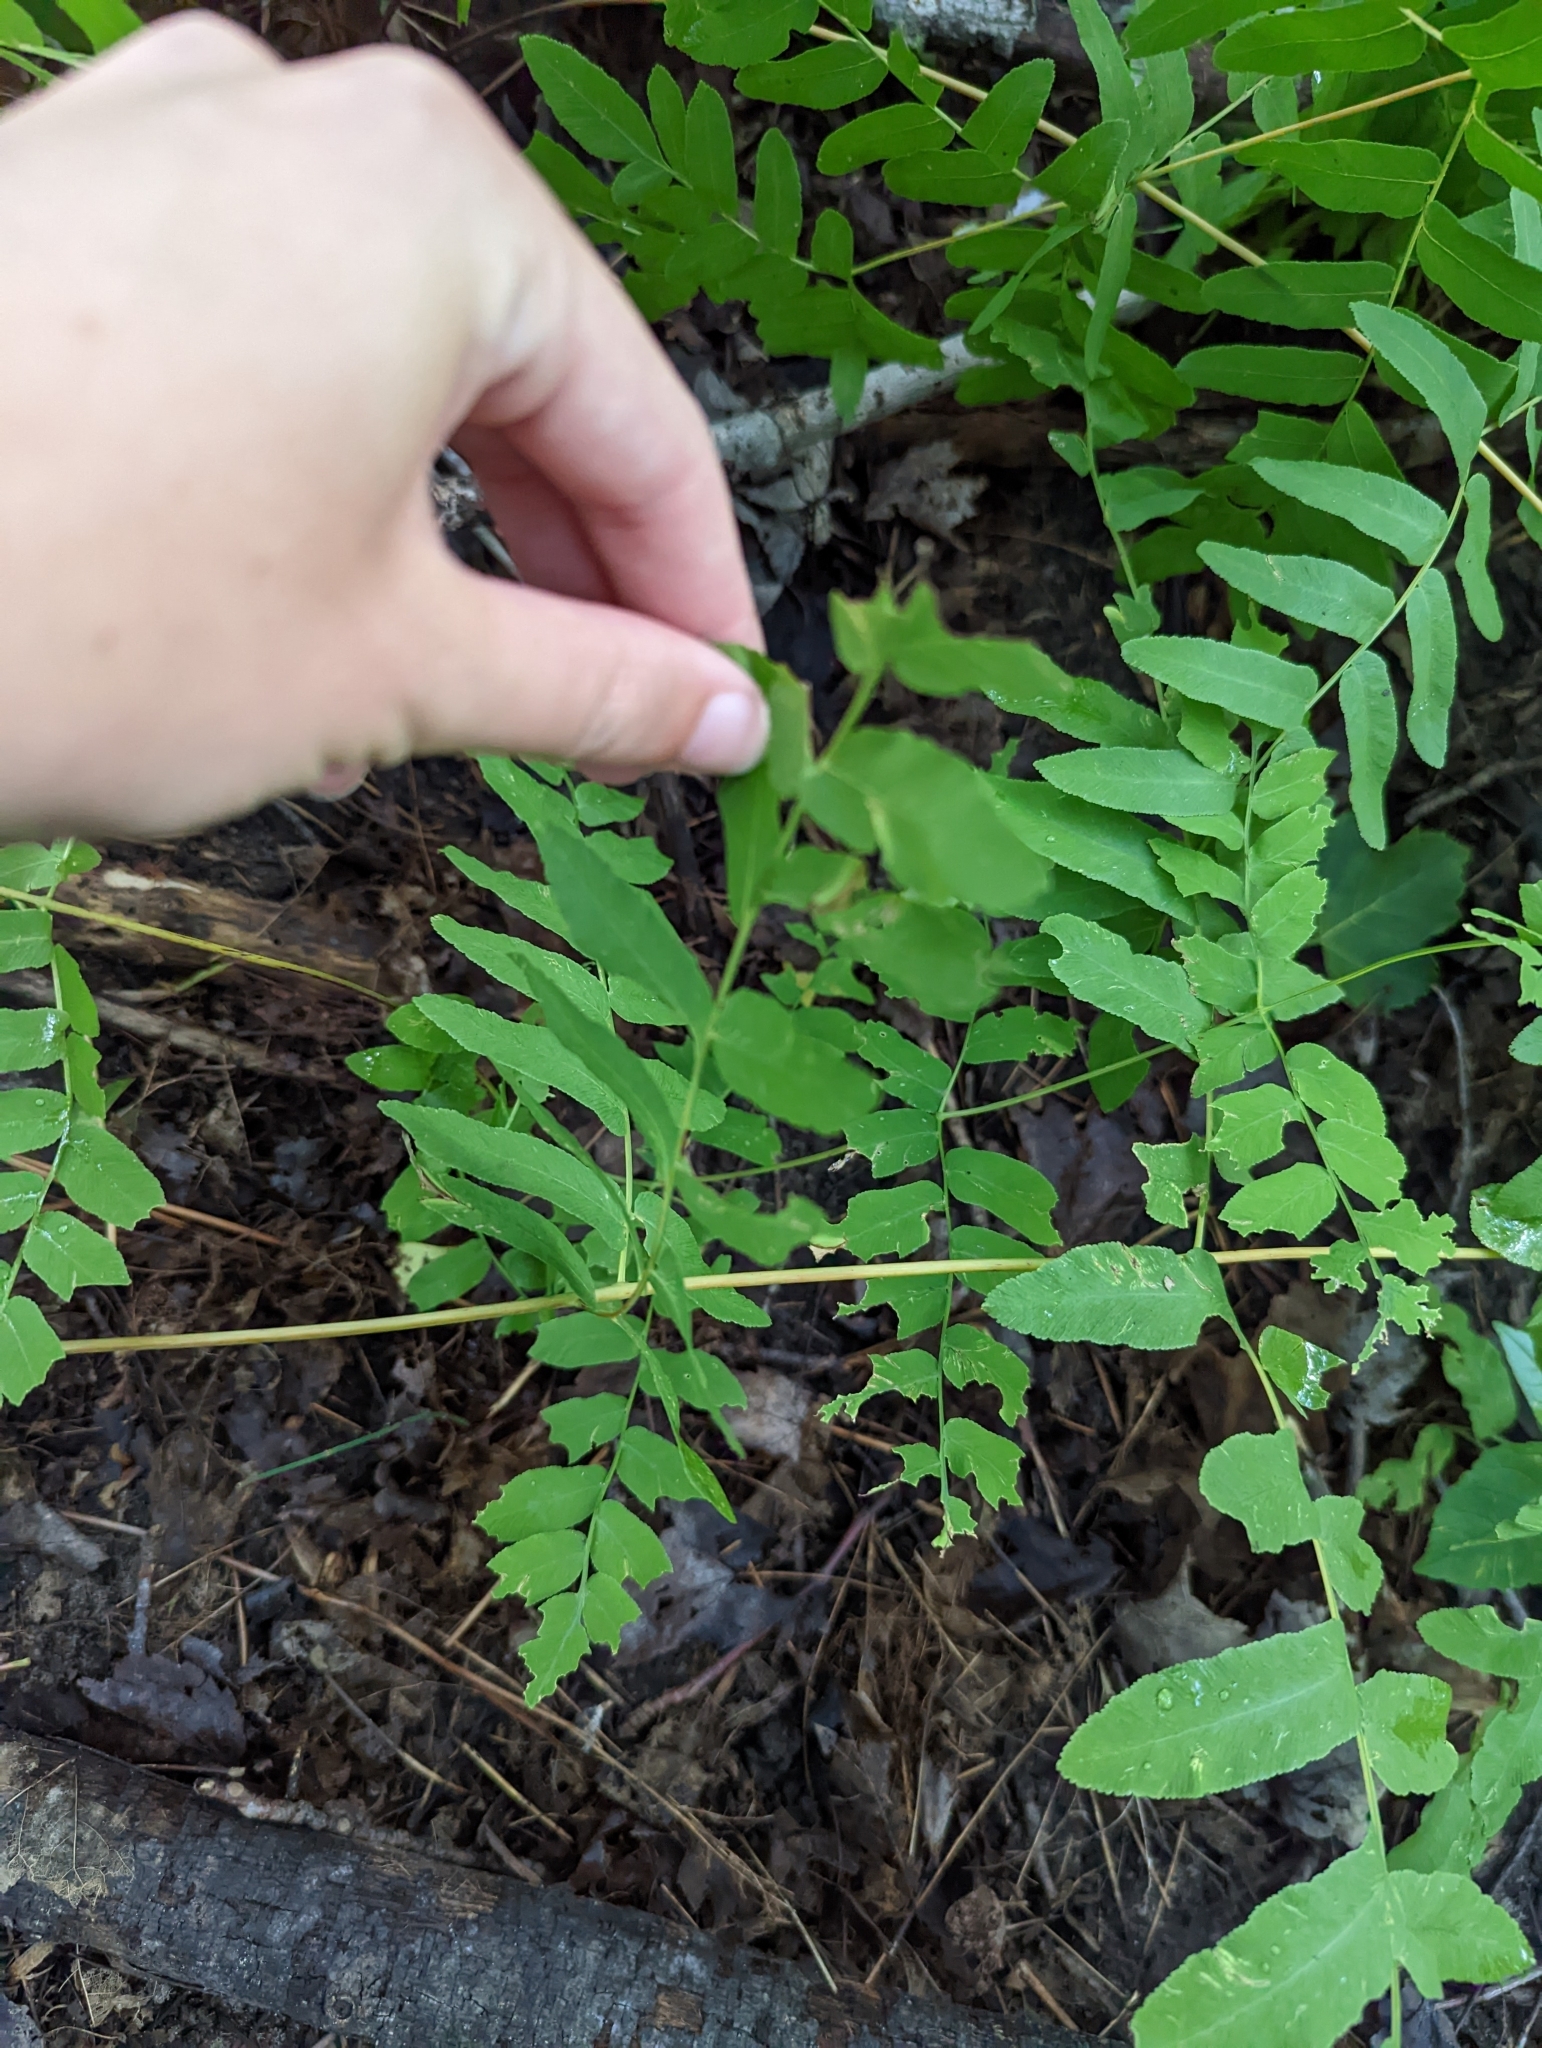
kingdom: Plantae
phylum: Tracheophyta
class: Polypodiopsida
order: Osmundales
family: Osmundaceae
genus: Osmunda
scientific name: Osmunda spectabilis
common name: American royal fern
